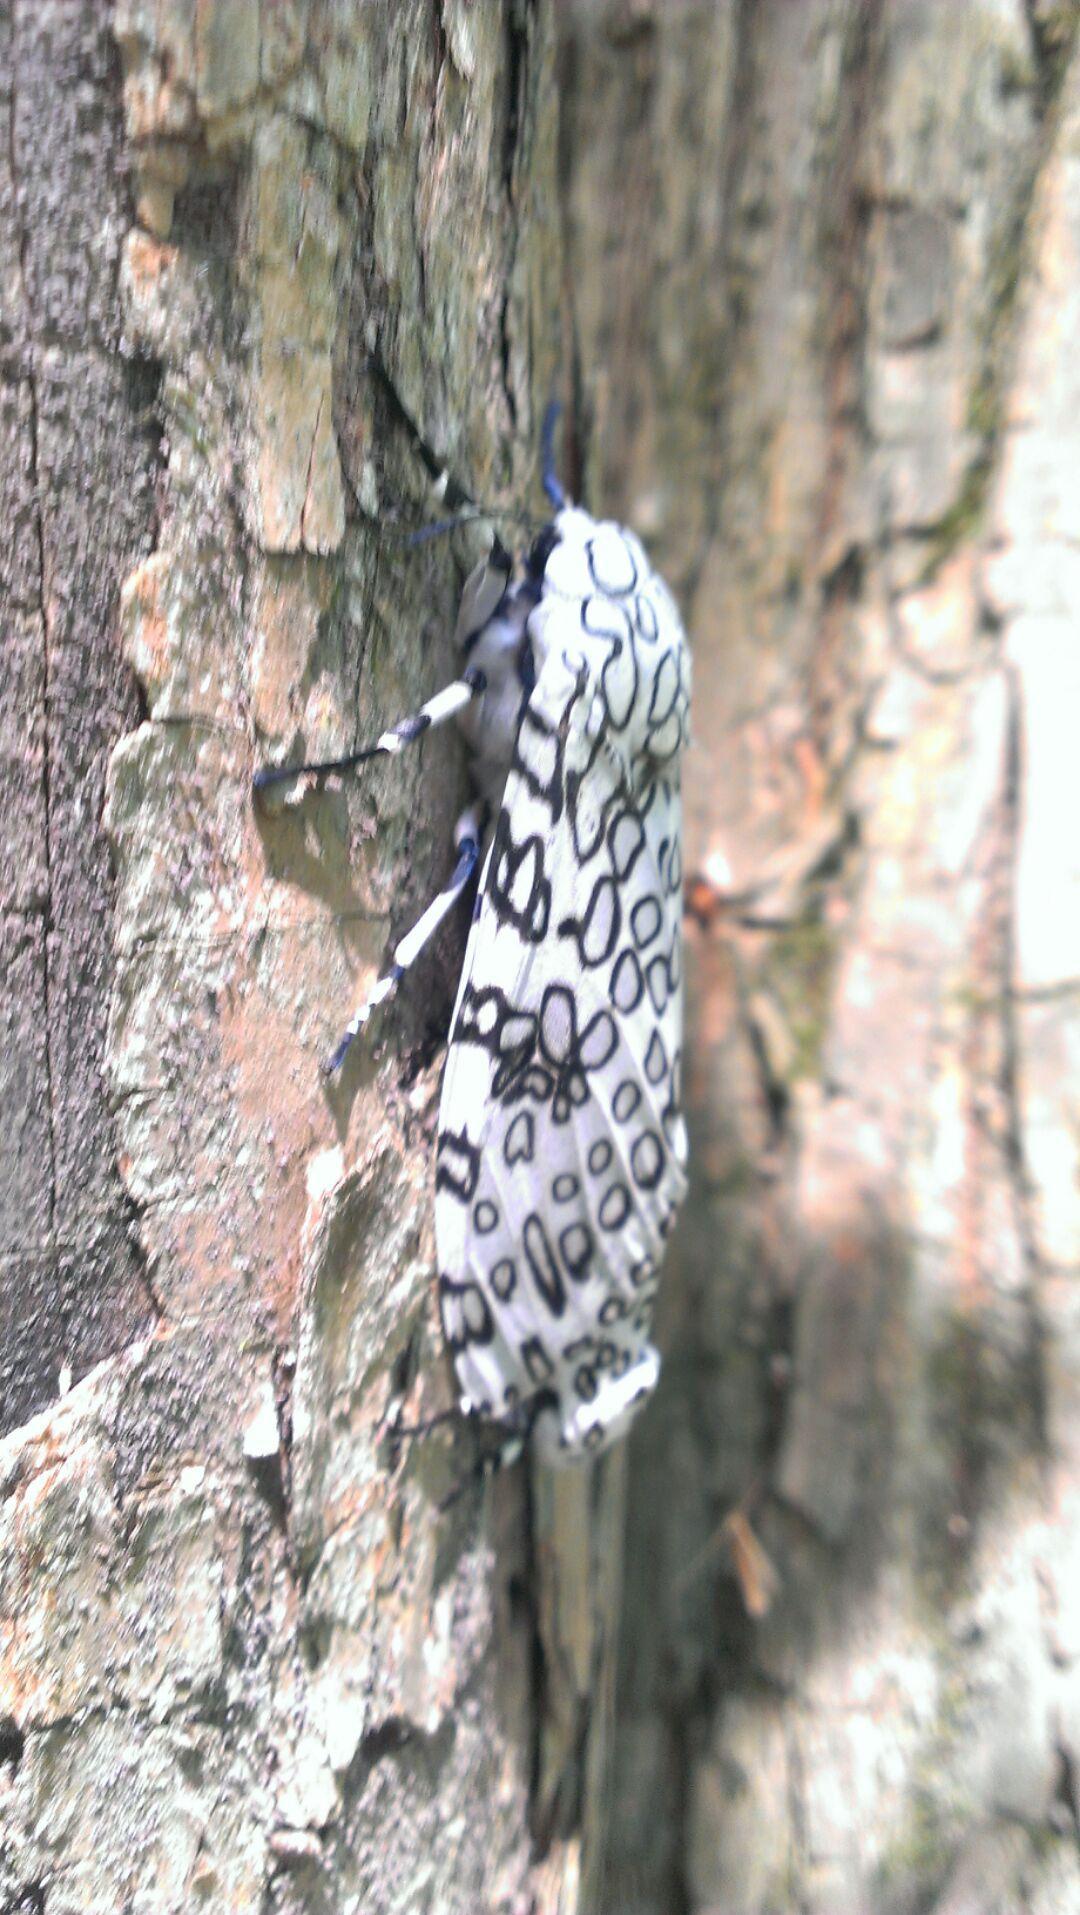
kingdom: Animalia
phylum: Arthropoda
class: Insecta
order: Lepidoptera
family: Erebidae
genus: Hypercompe
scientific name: Hypercompe scribonia
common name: Giant leopard moth
